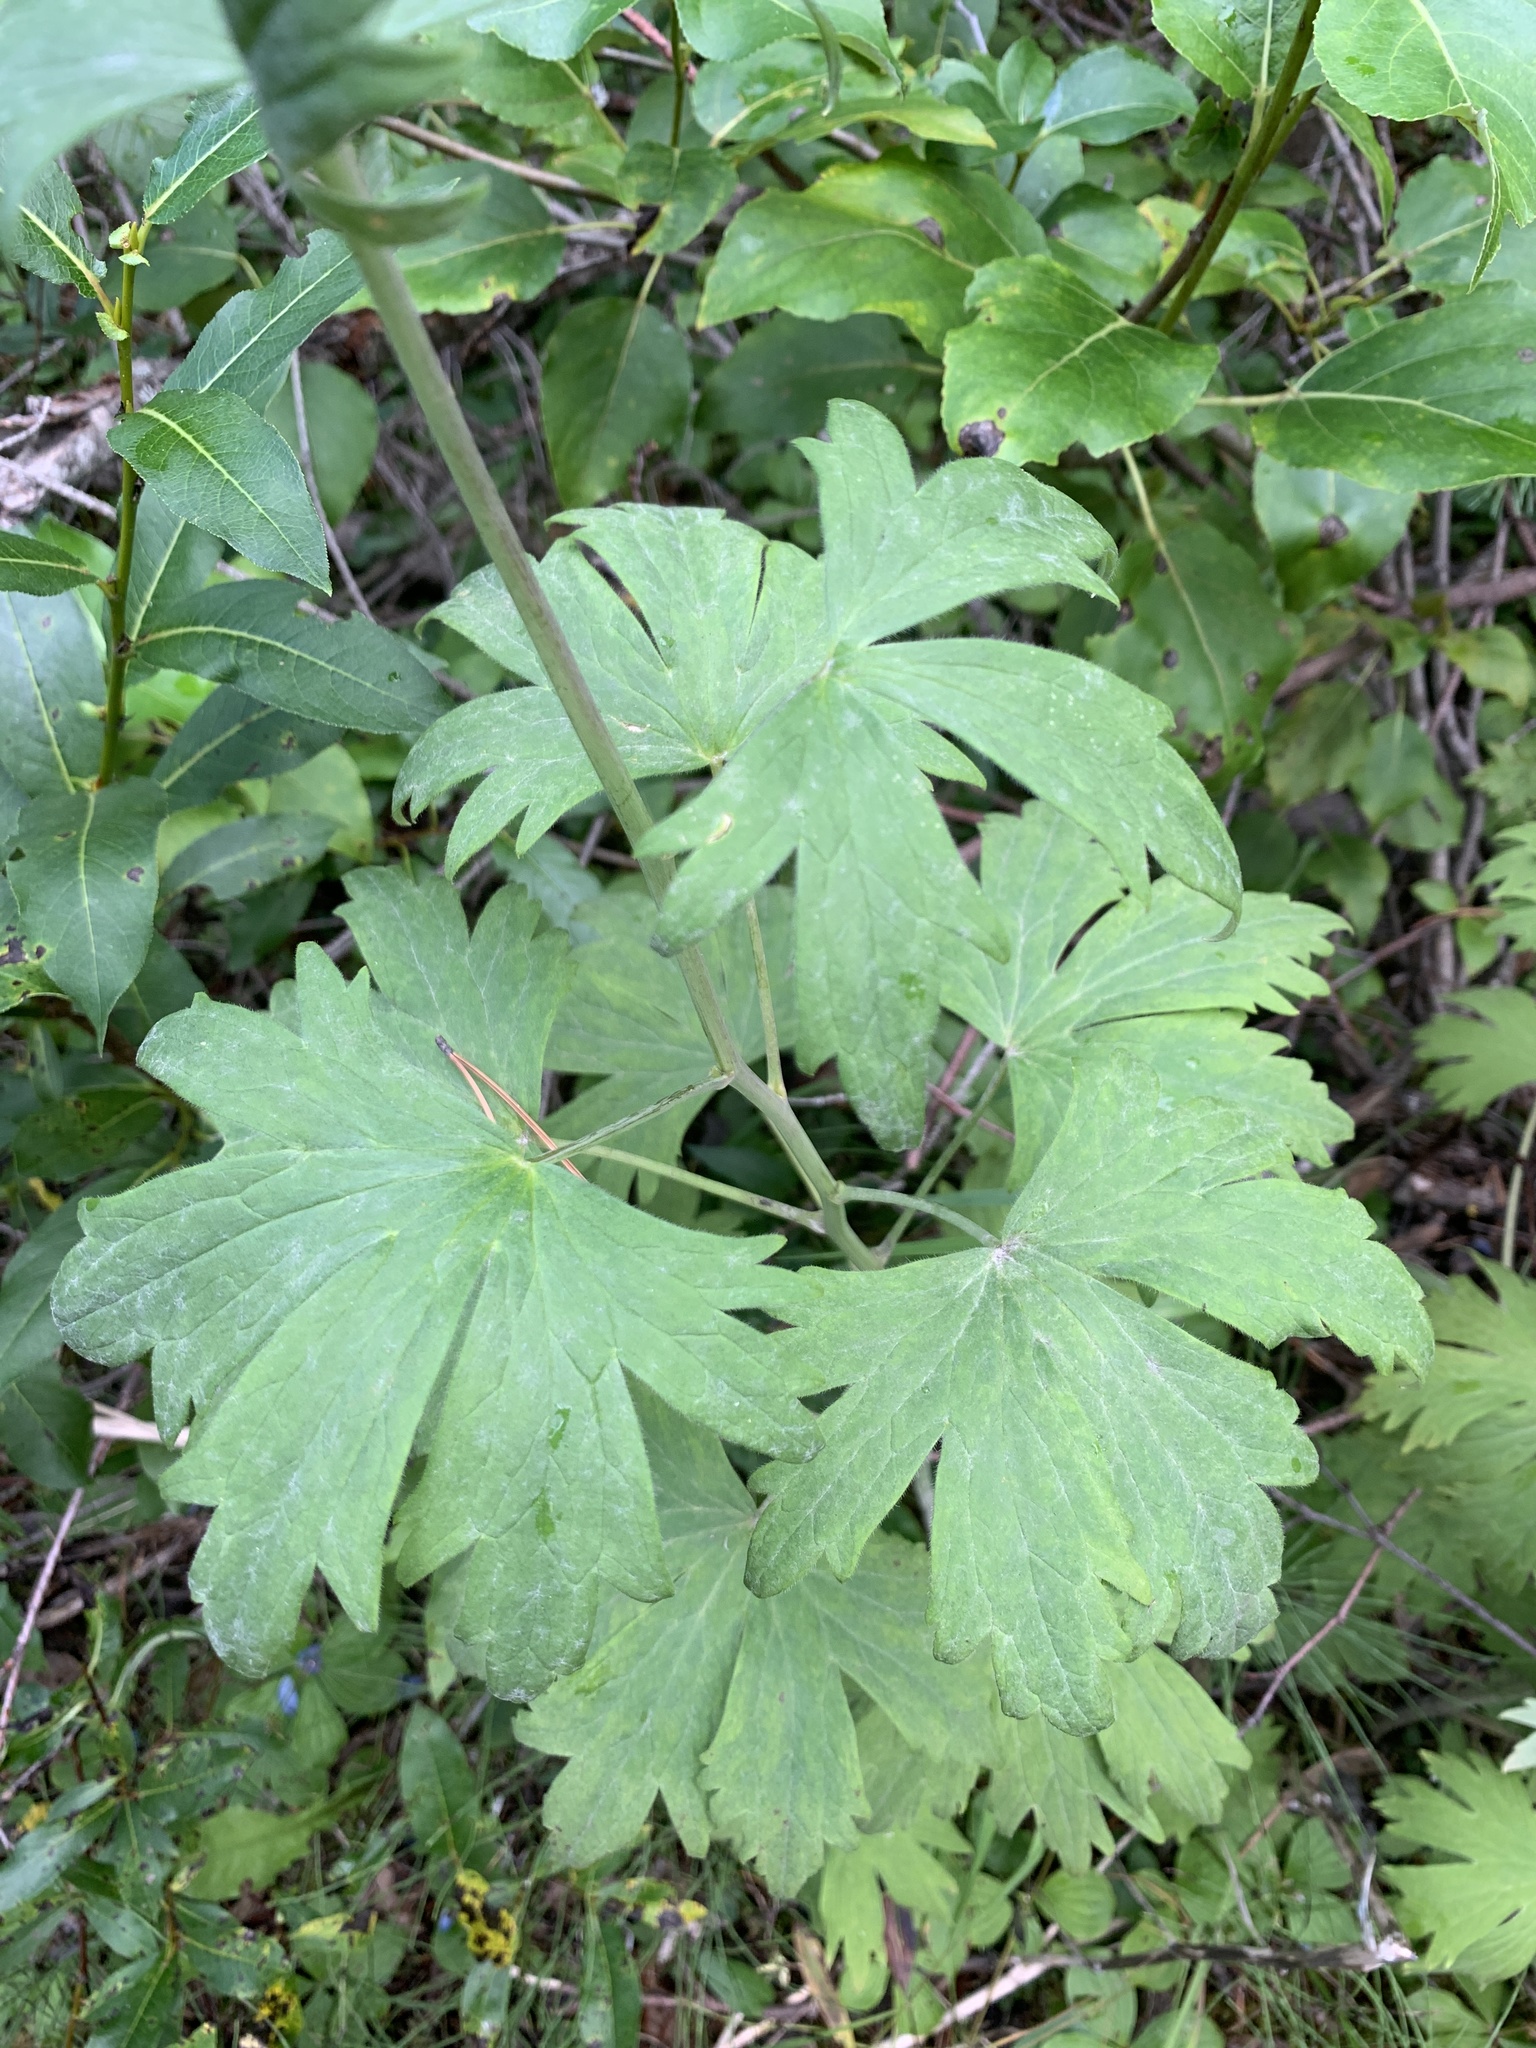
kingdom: Plantae
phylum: Tracheophyta
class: Magnoliopsida
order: Ranunculales
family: Ranunculaceae
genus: Delphinium
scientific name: Delphinium cultorum
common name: Garden delphinium
